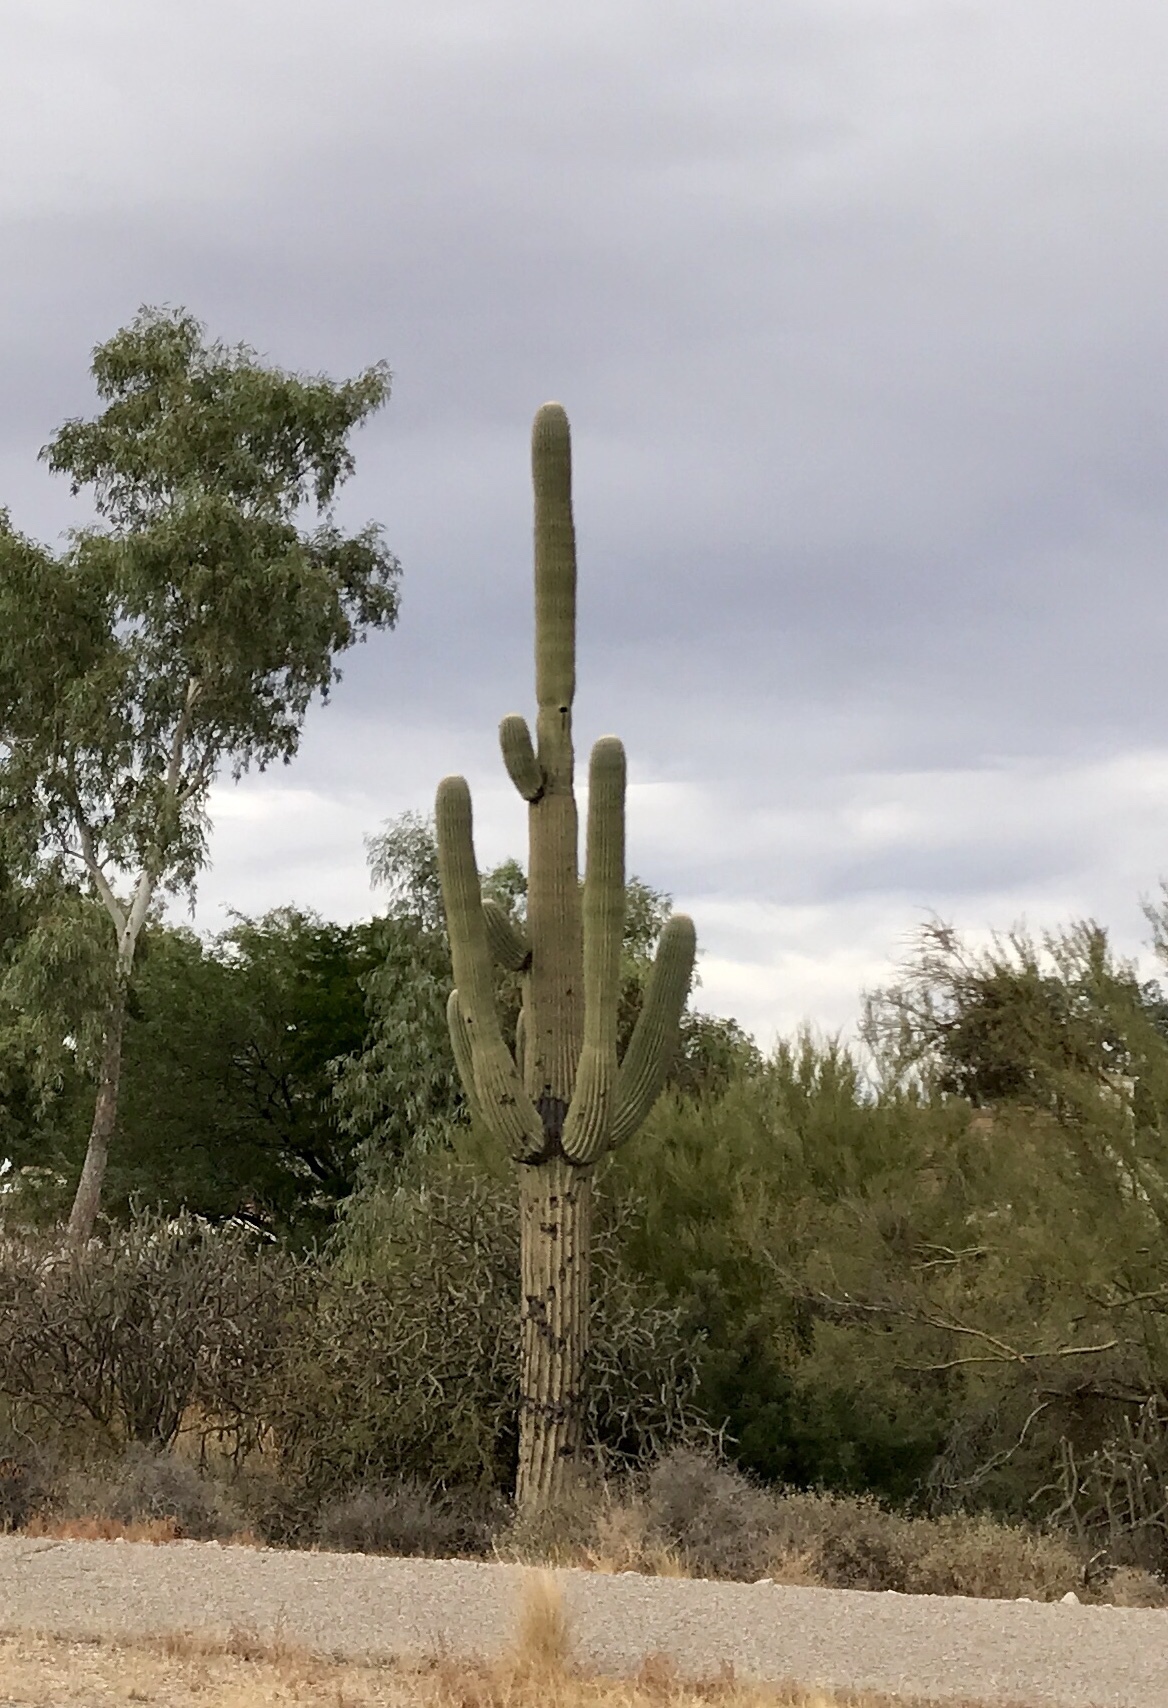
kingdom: Plantae
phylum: Tracheophyta
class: Magnoliopsida
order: Caryophyllales
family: Cactaceae
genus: Carnegiea
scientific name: Carnegiea gigantea
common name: Saguaro
